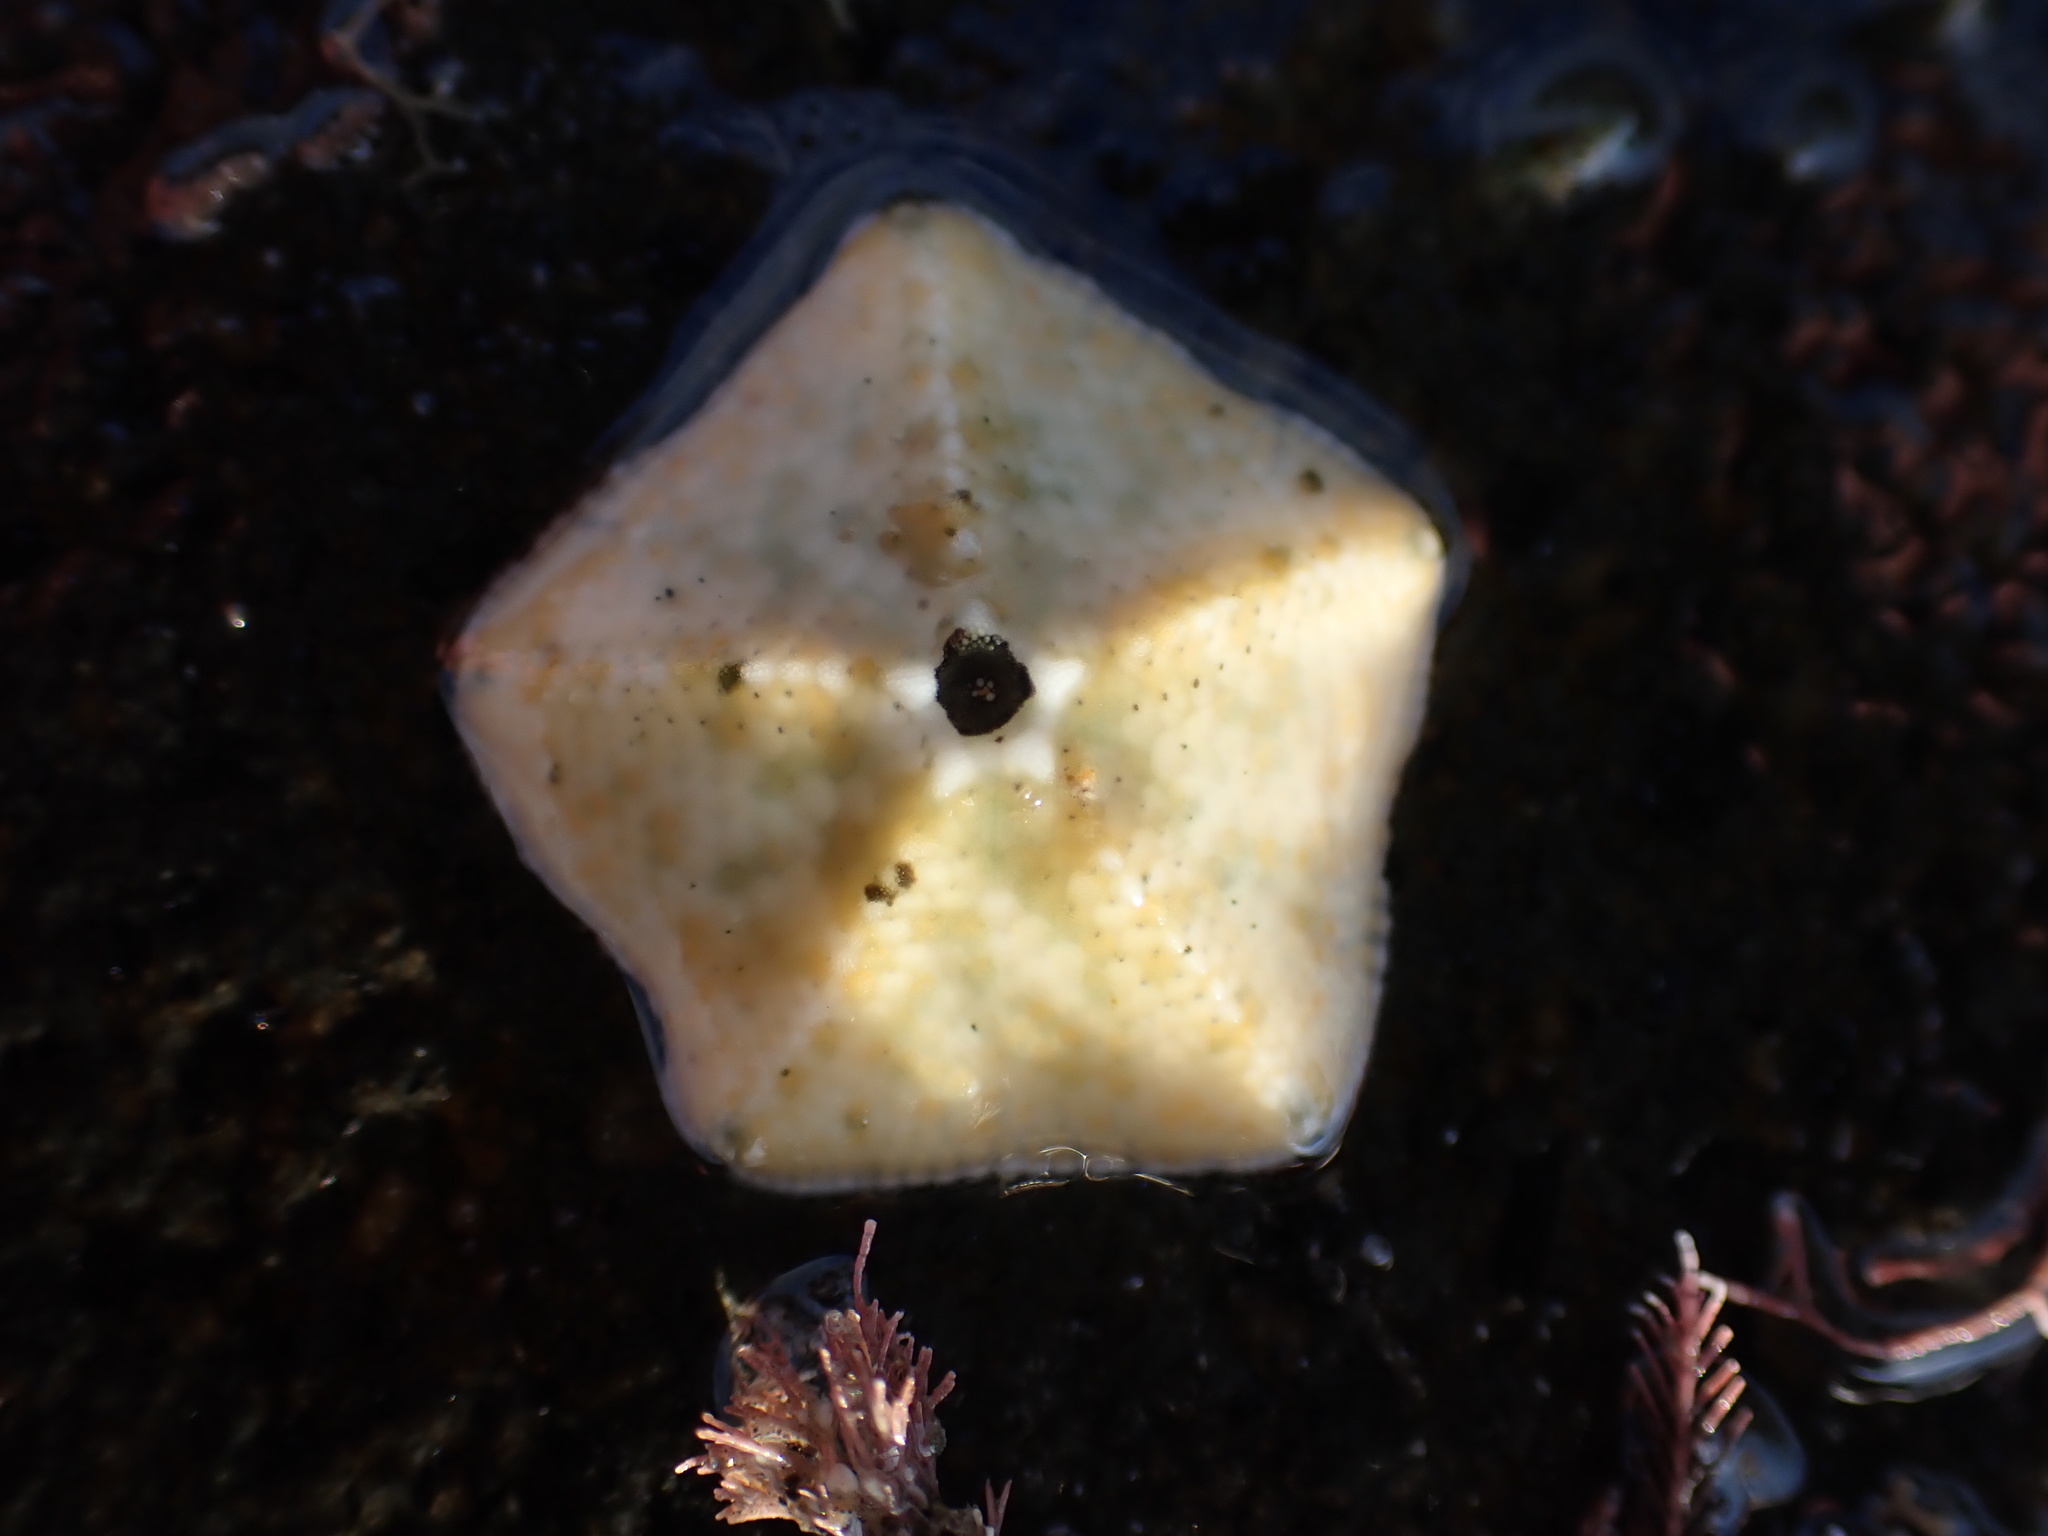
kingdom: Animalia
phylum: Echinodermata
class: Asteroidea
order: Valvatida
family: Asterinidae
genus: Stegnaster
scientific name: Stegnaster inflatus
